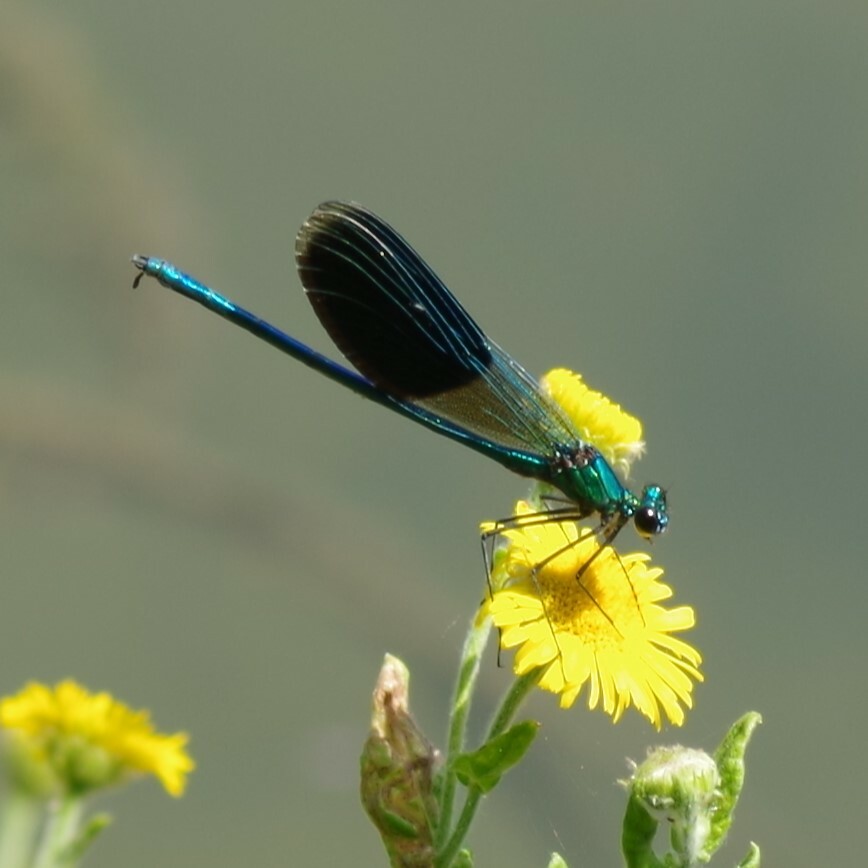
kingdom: Animalia
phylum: Arthropoda
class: Insecta
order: Odonata
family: Calopterygidae
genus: Calopteryx
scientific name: Calopteryx splendens
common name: Banded demoiselle
